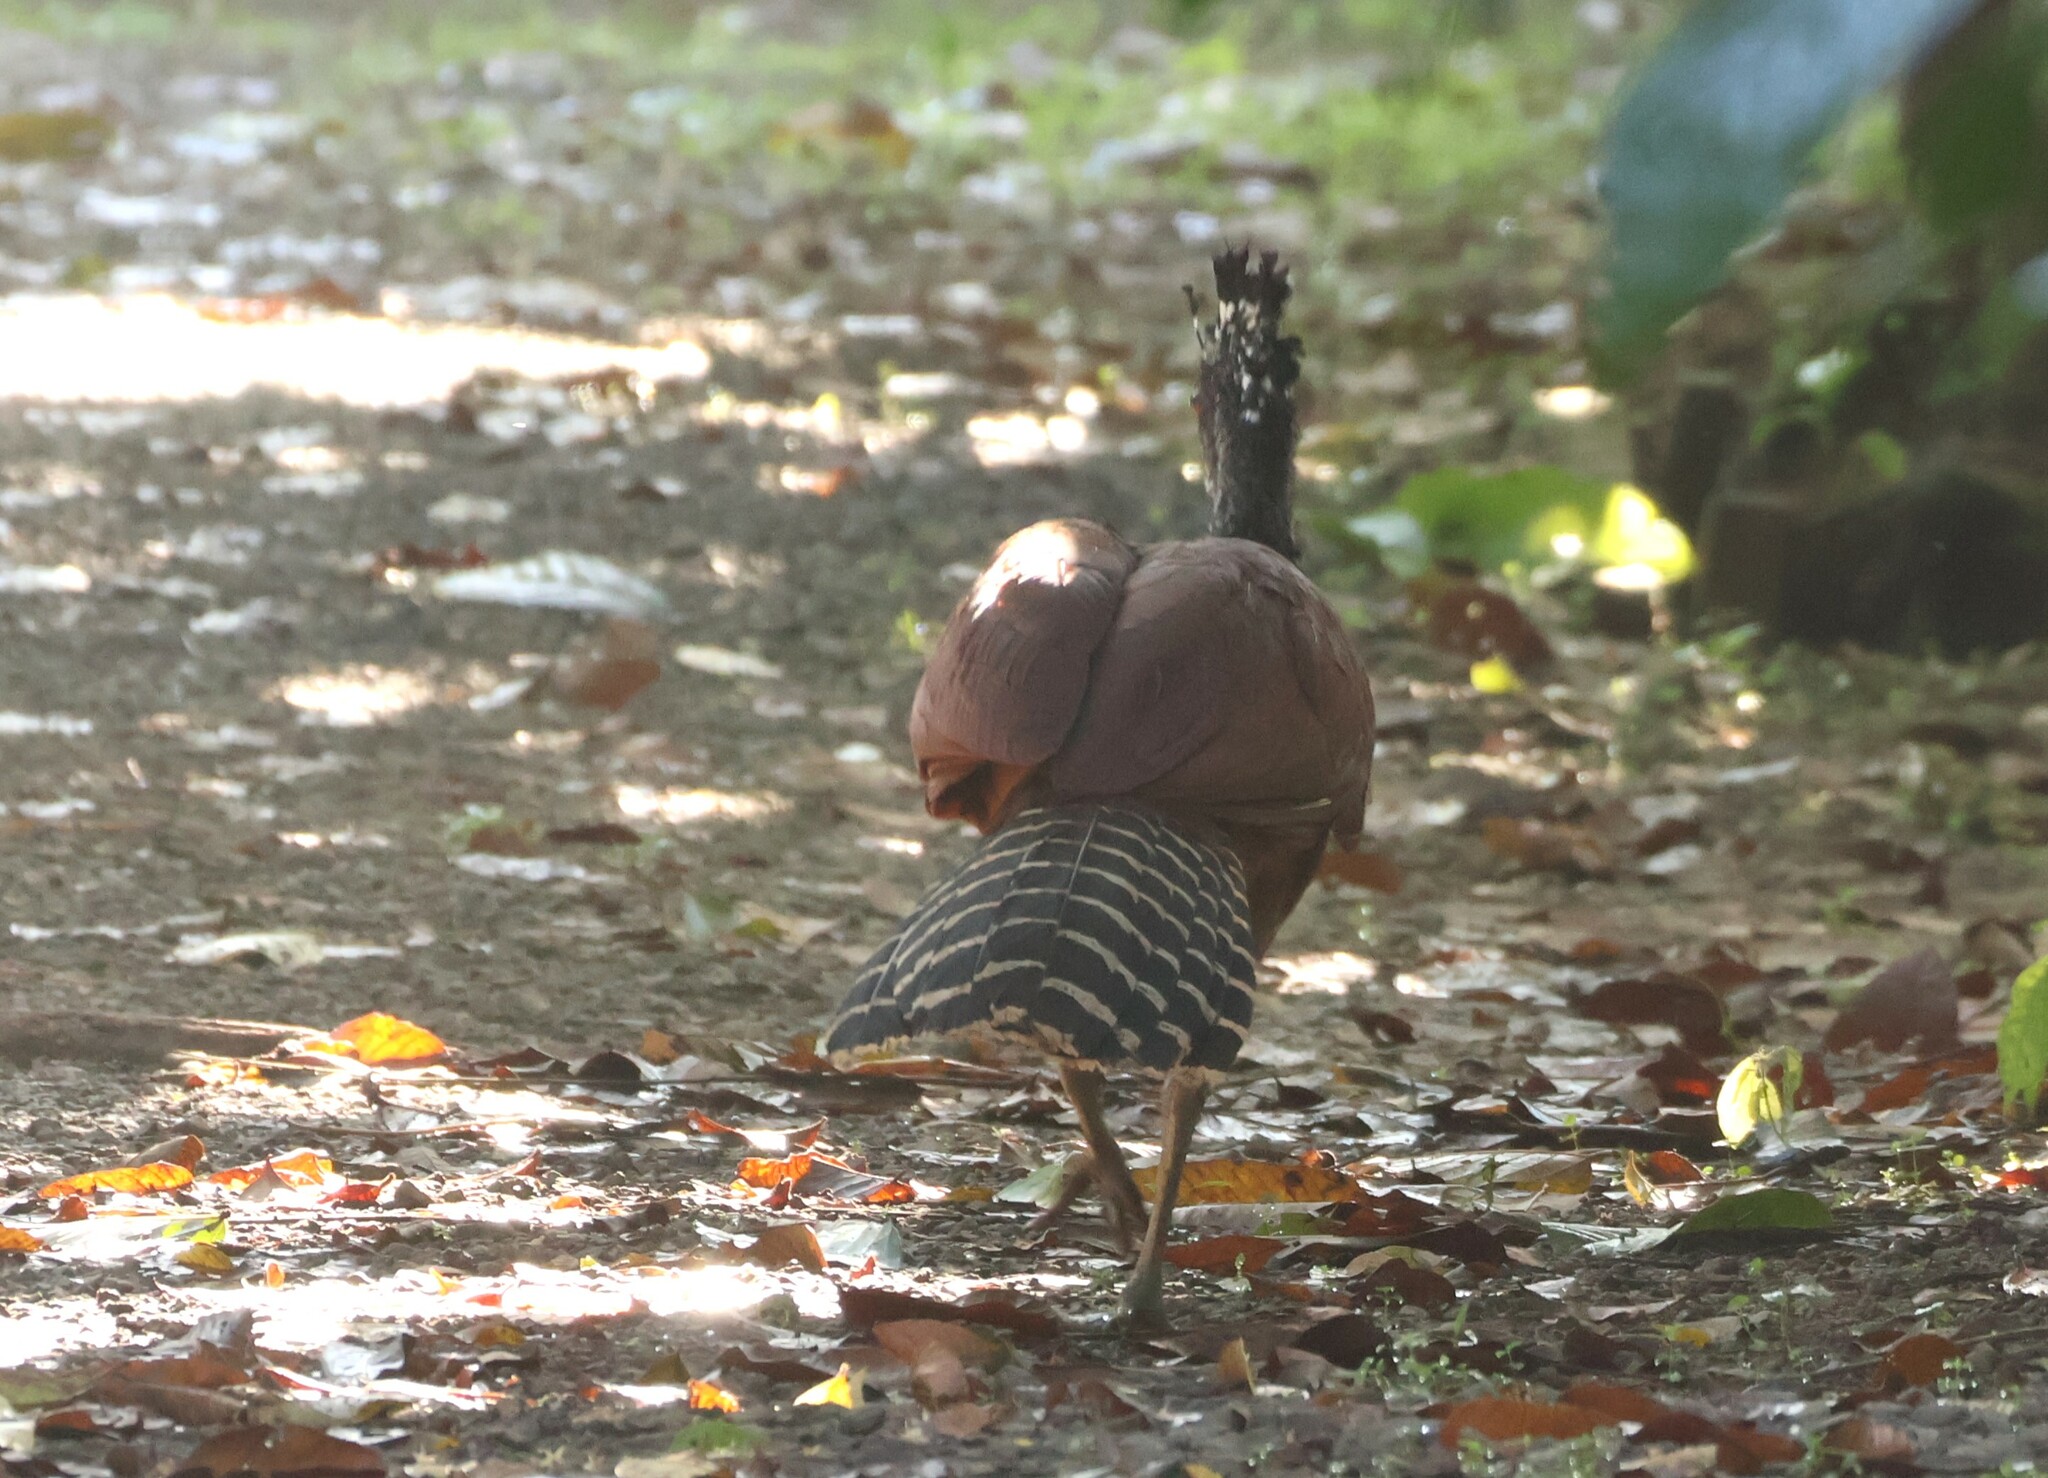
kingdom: Animalia
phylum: Chordata
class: Aves
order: Galliformes
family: Cracidae
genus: Crax
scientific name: Crax rubra
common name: Great curassow
